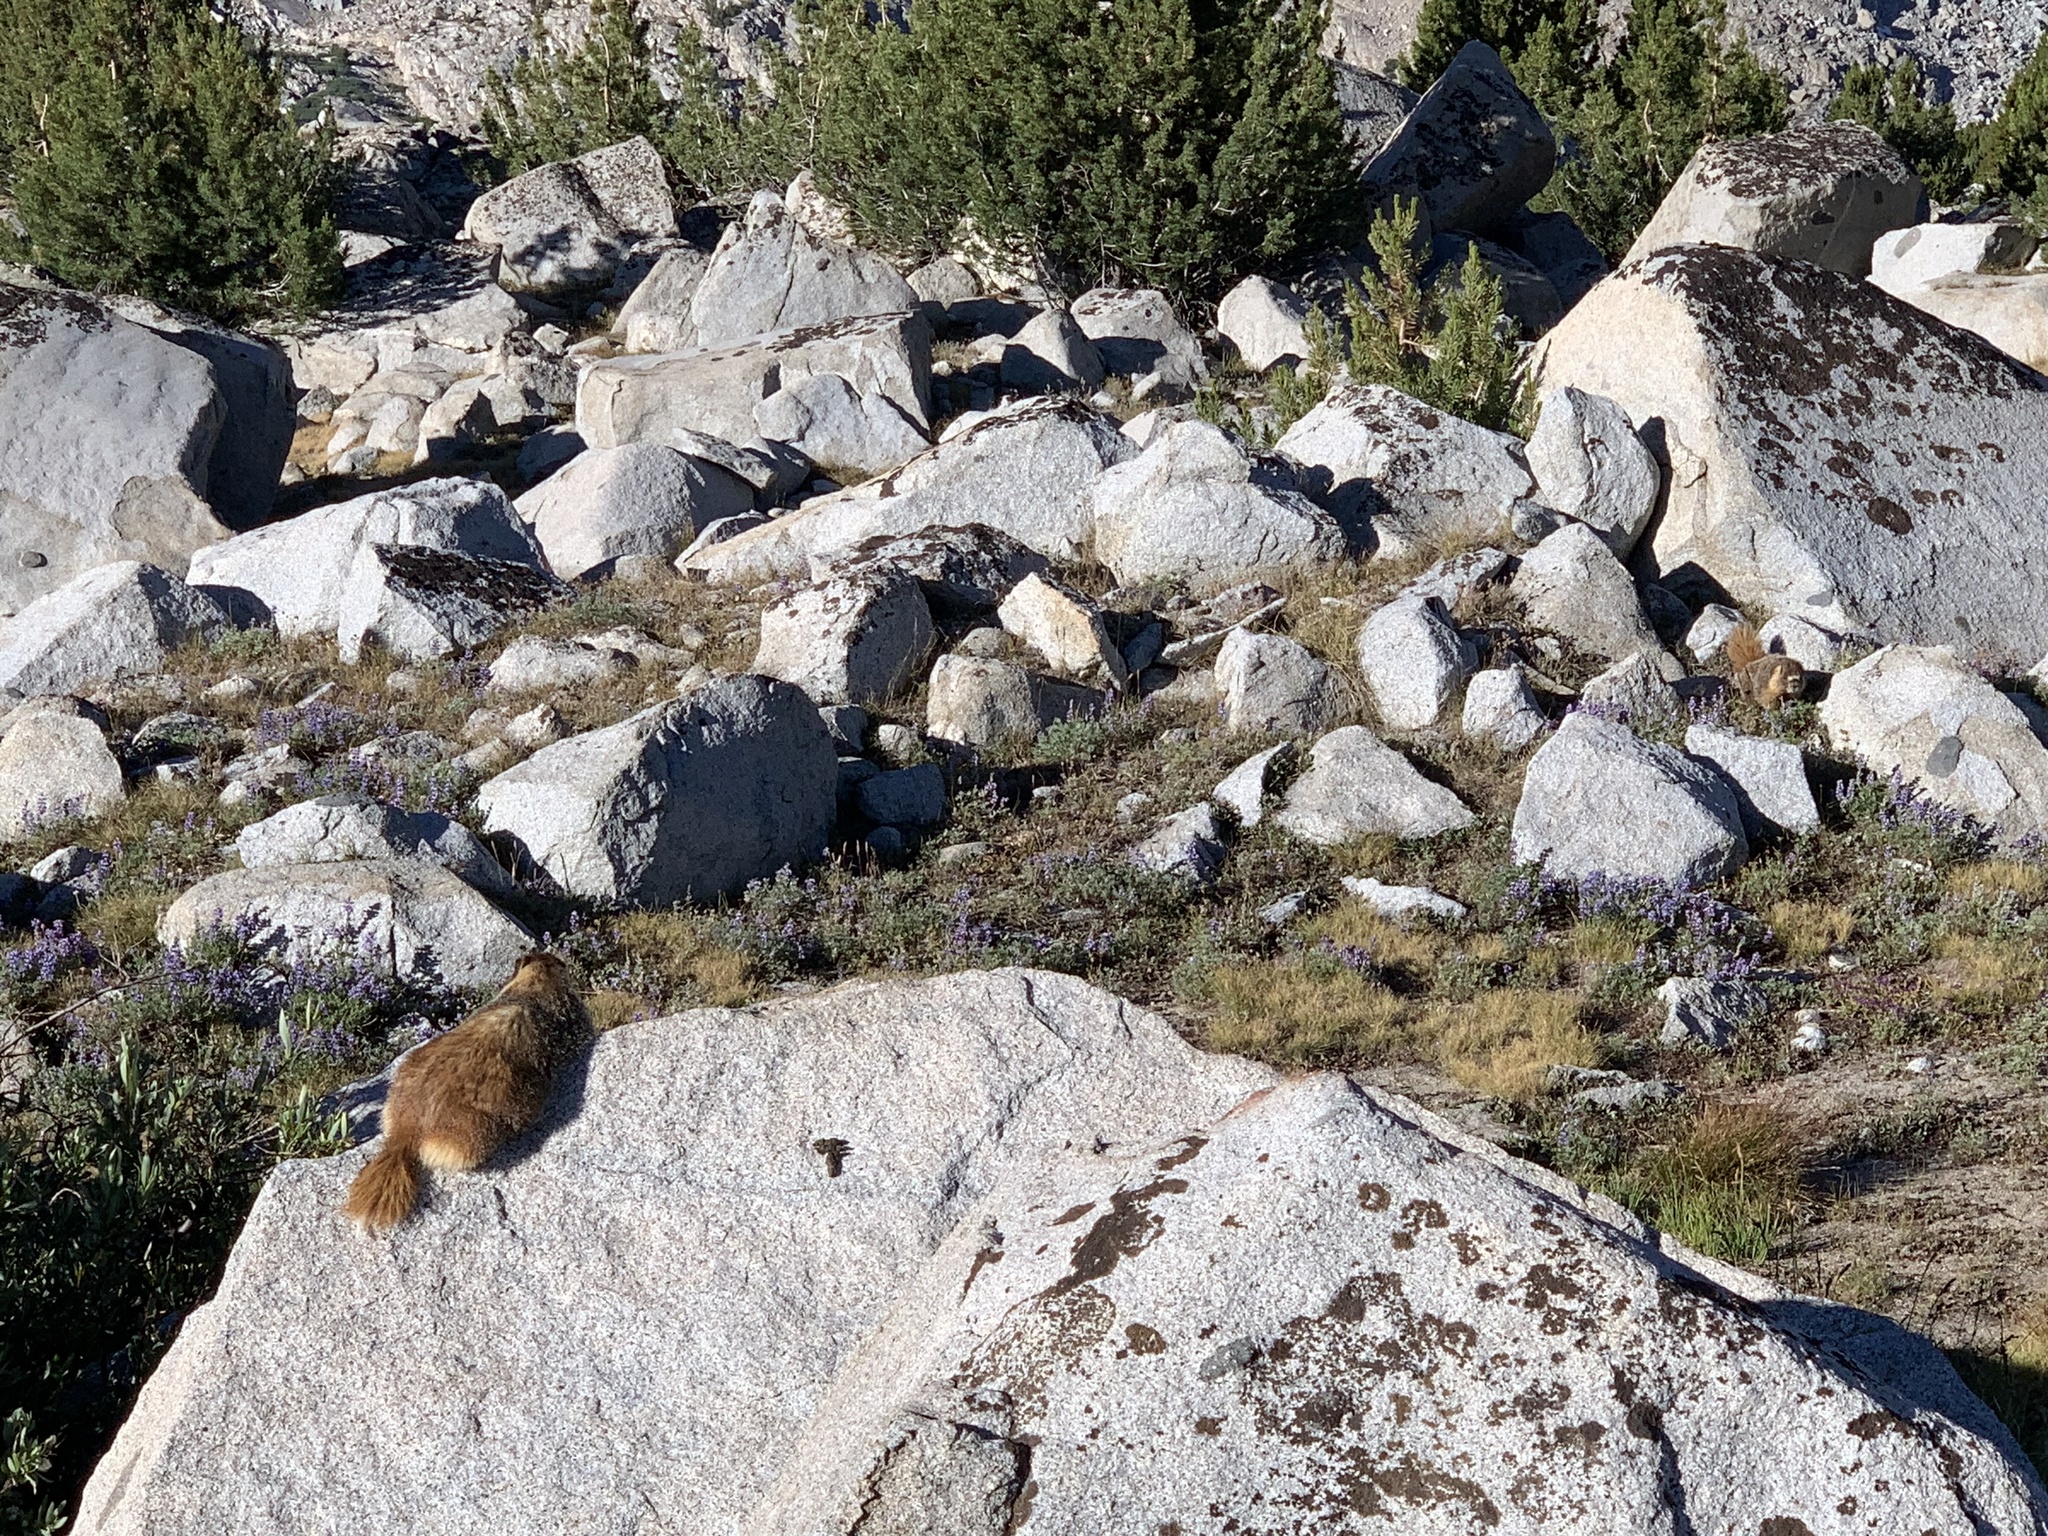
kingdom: Animalia
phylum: Chordata
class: Mammalia
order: Rodentia
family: Sciuridae
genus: Marmota
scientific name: Marmota flaviventris
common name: Yellow-bellied marmot
